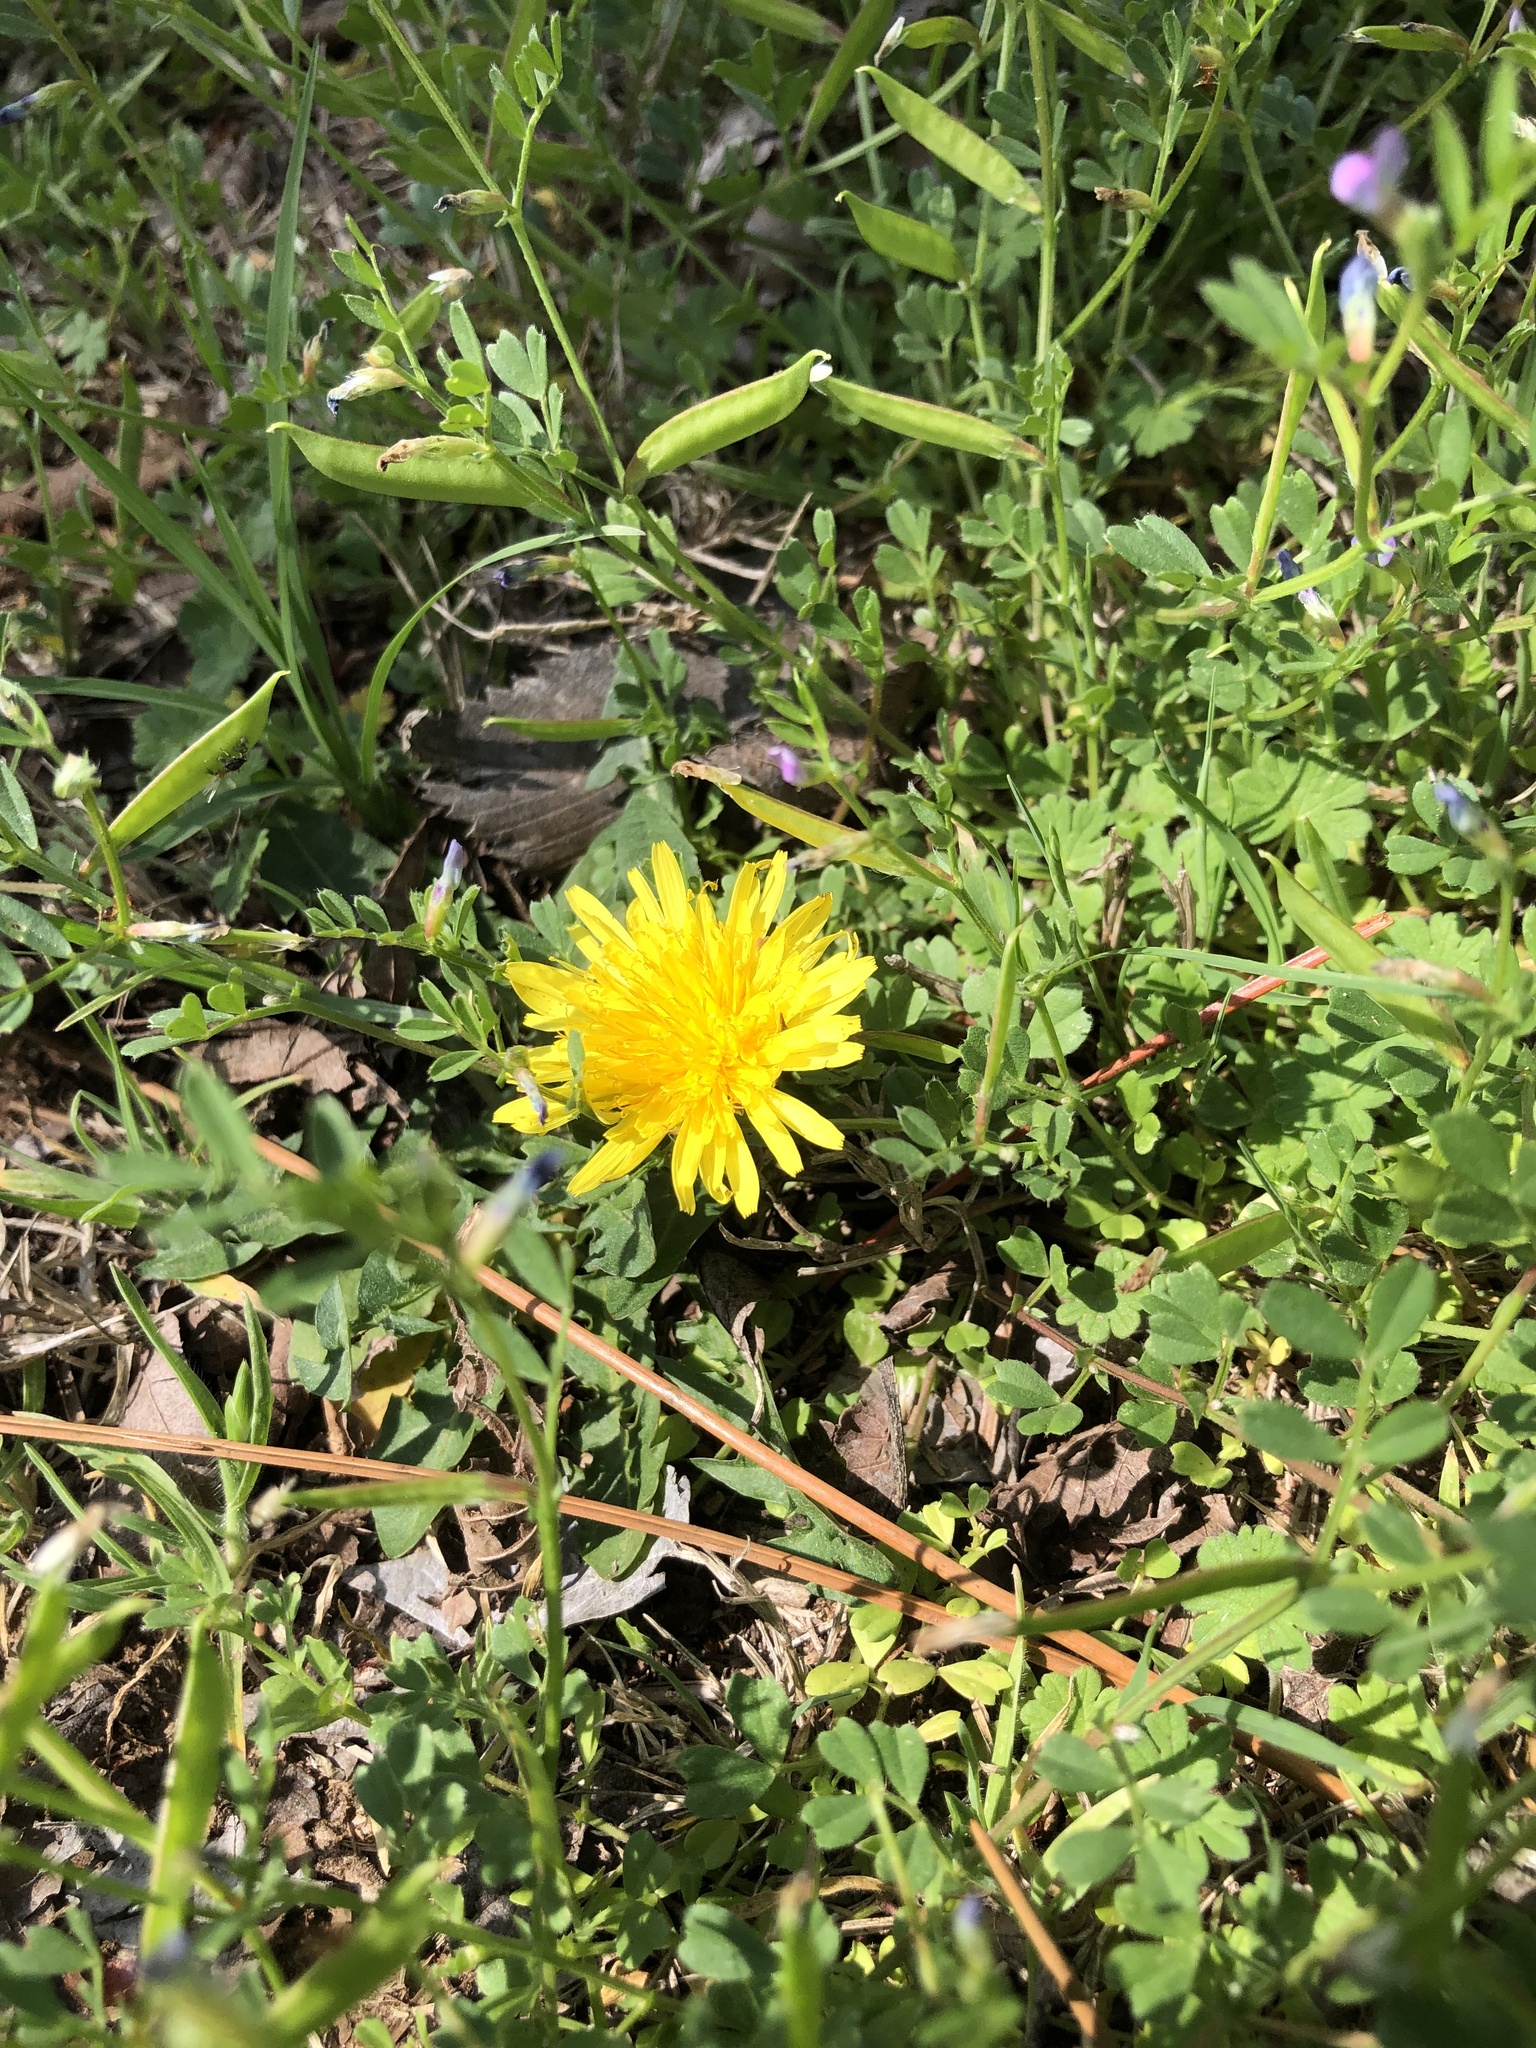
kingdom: Plantae
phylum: Tracheophyta
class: Magnoliopsida
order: Asterales
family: Asteraceae
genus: Taraxacum
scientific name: Taraxacum
